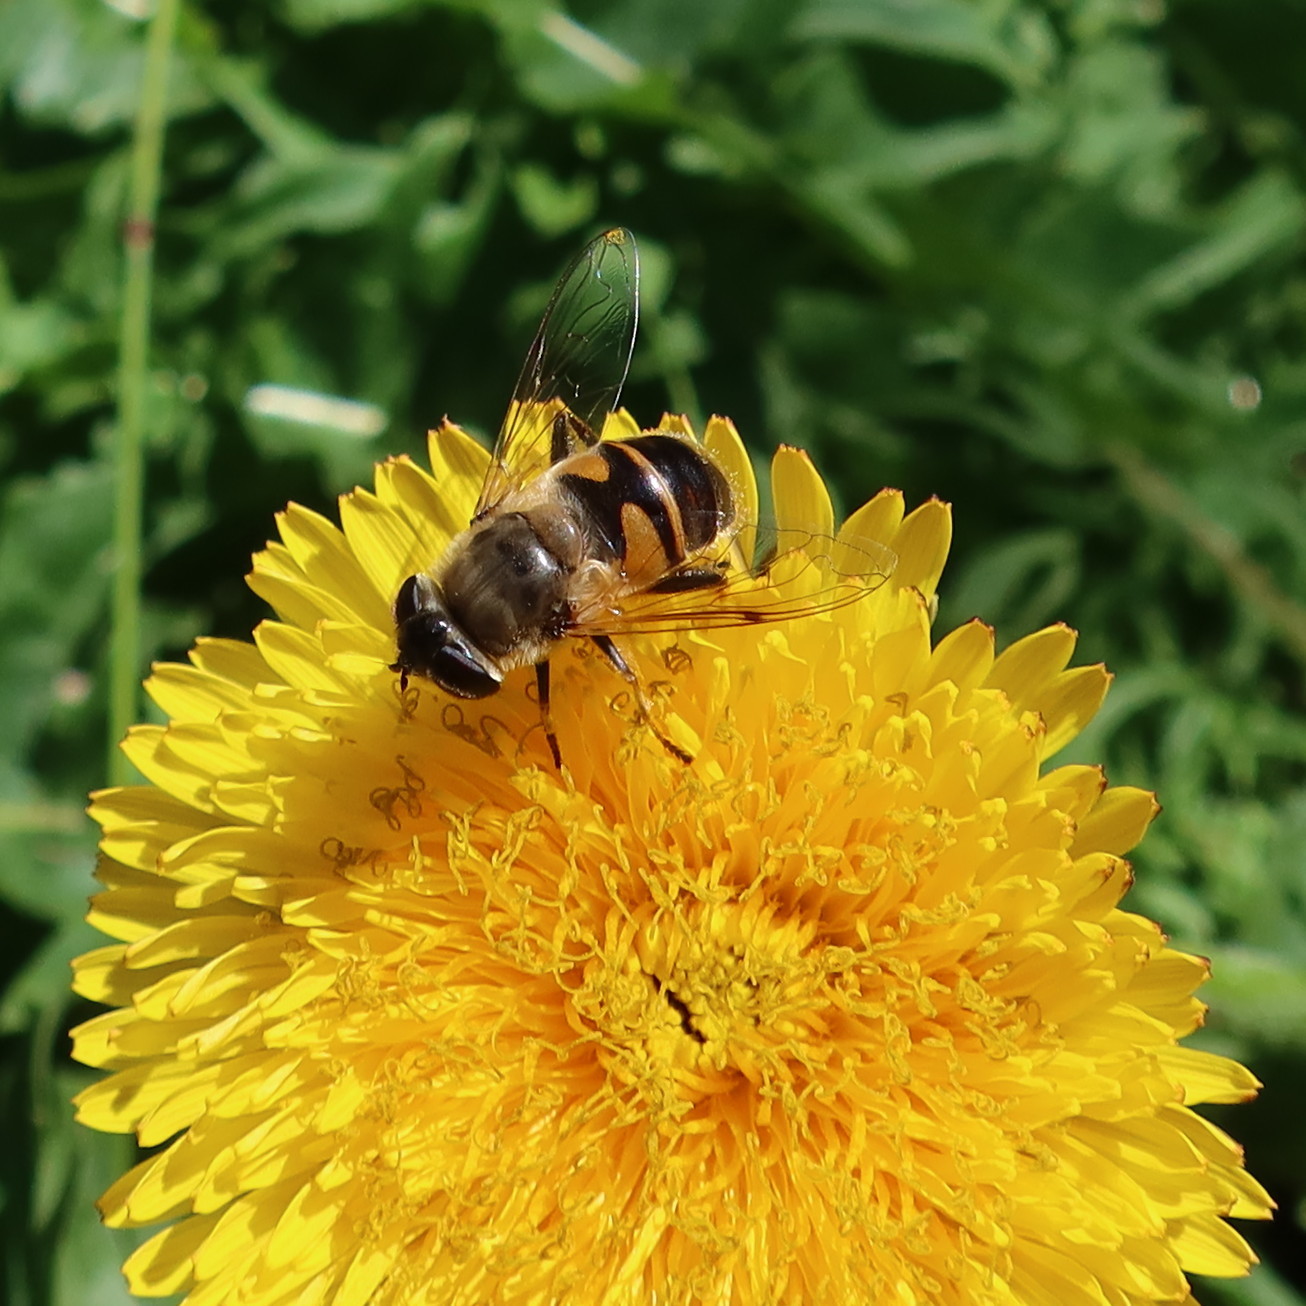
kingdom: Animalia
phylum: Arthropoda
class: Insecta
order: Diptera
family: Syrphidae
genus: Eristalis
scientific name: Eristalis tenax
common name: Drone fly
